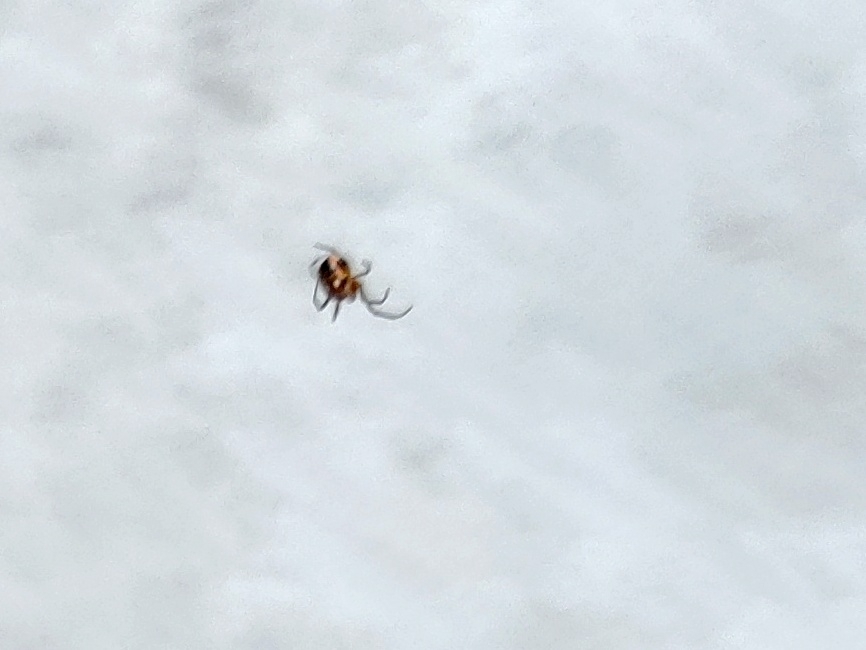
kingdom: Animalia
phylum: Arthropoda
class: Arachnida
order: Araneae
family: Araneidae
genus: Anepsion
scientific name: Anepsion maritatum
